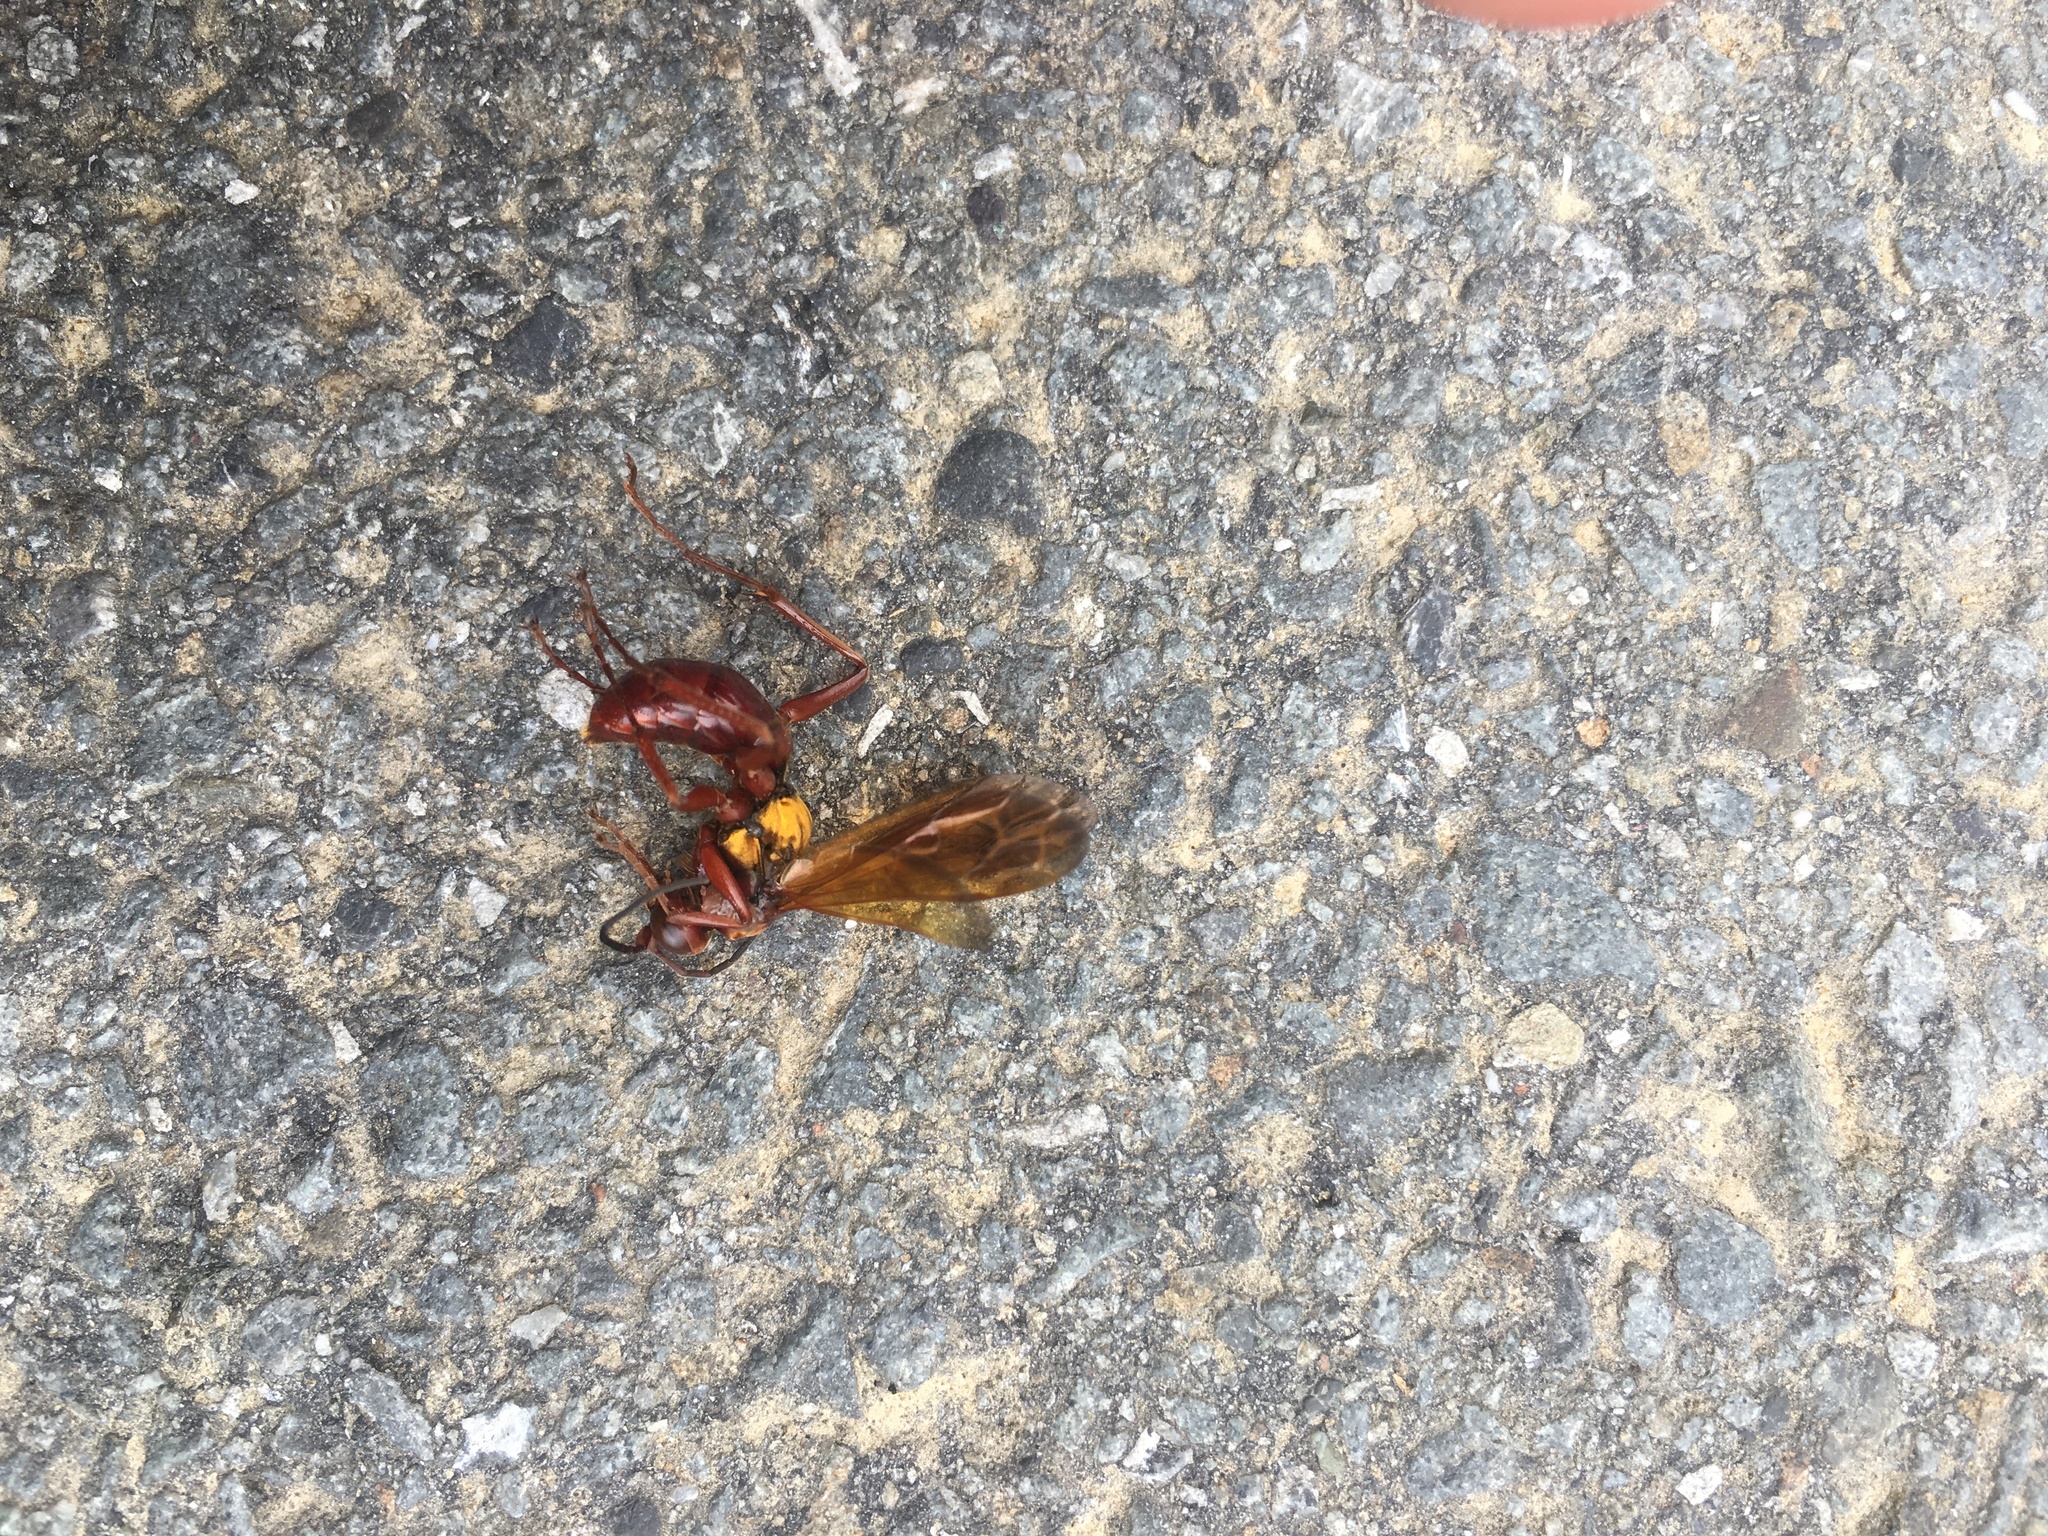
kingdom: Animalia
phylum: Arthropoda
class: Insecta
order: Hymenoptera
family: Pompilidae
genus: Sphictostethus
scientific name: Sphictostethus nitidus
